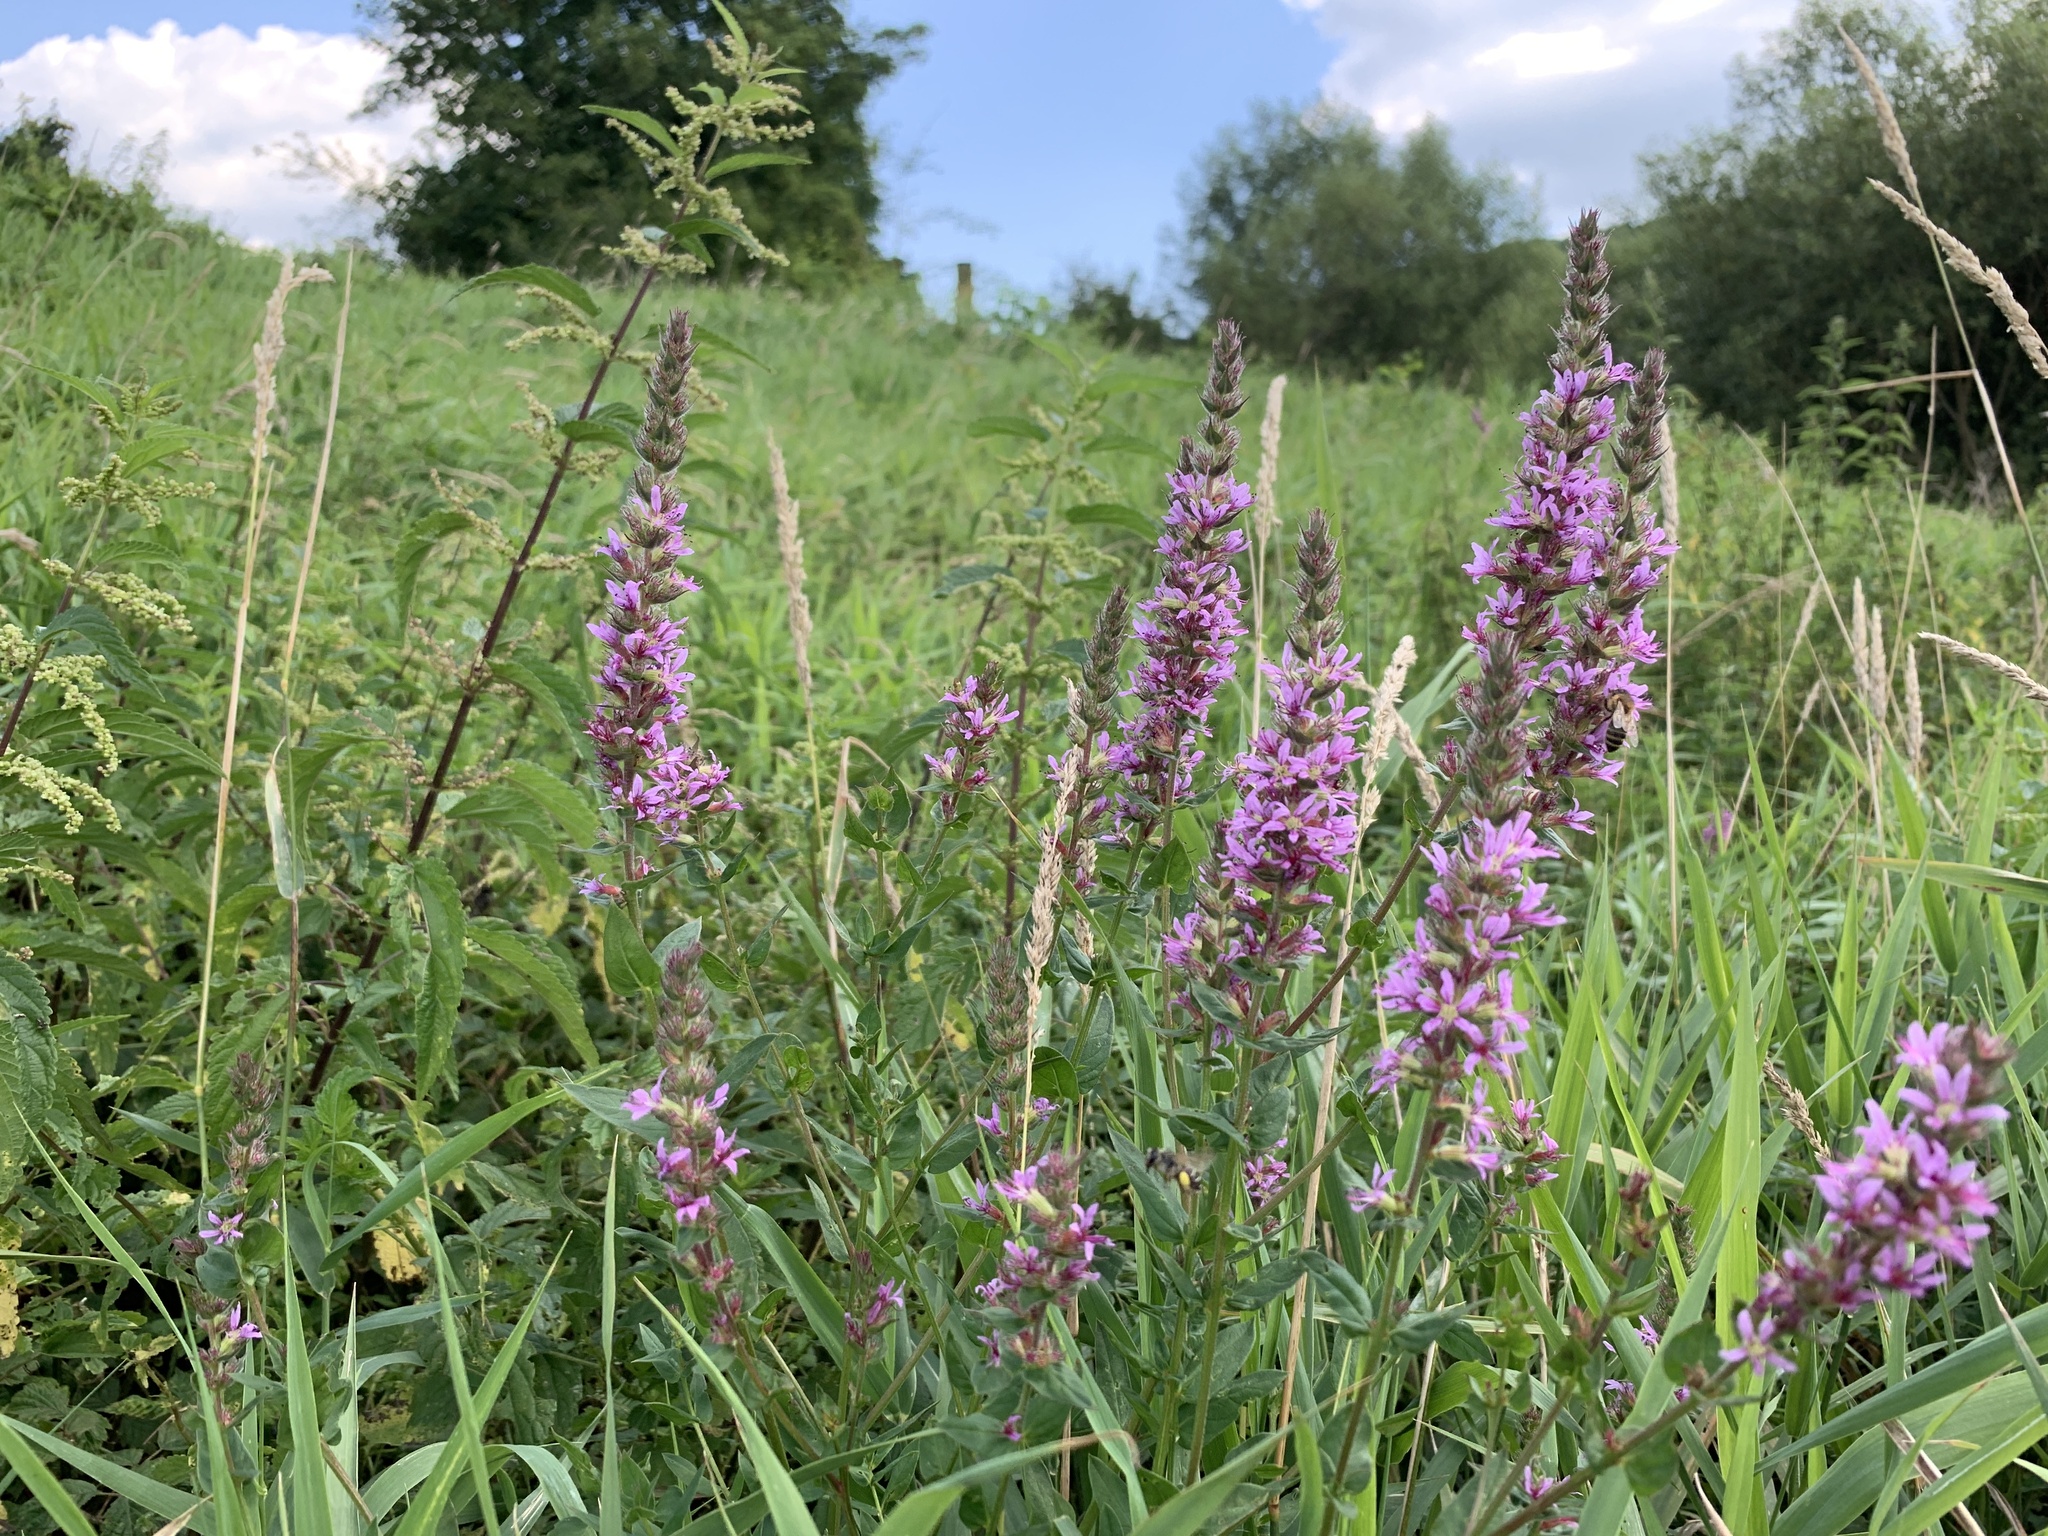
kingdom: Plantae
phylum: Tracheophyta
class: Magnoliopsida
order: Myrtales
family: Lythraceae
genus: Lythrum
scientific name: Lythrum salicaria
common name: Purple loosestrife
